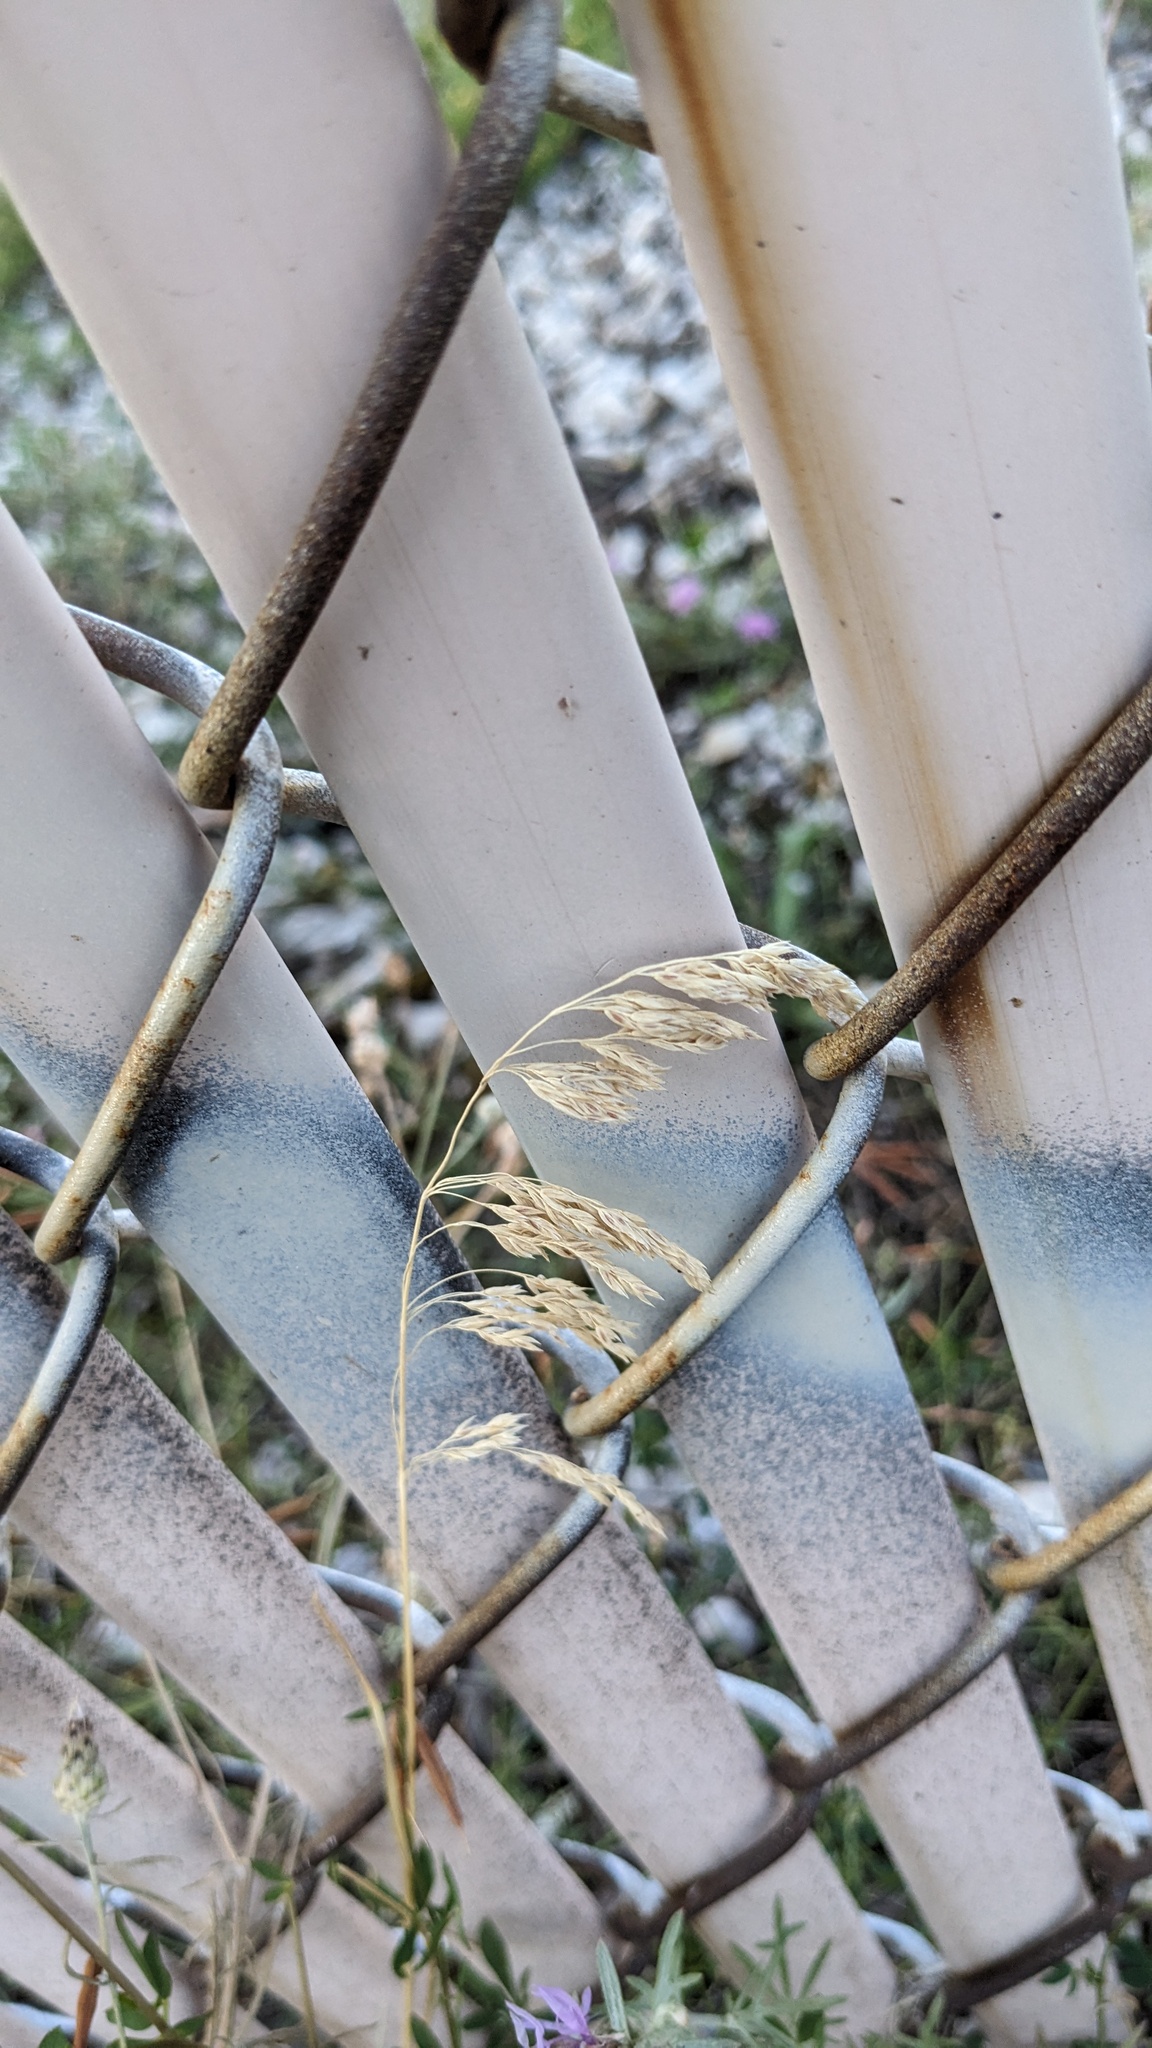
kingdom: Plantae
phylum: Tracheophyta
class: Liliopsida
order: Poales
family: Poaceae
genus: Poa
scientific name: Poa pratensis
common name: Kentucky bluegrass
